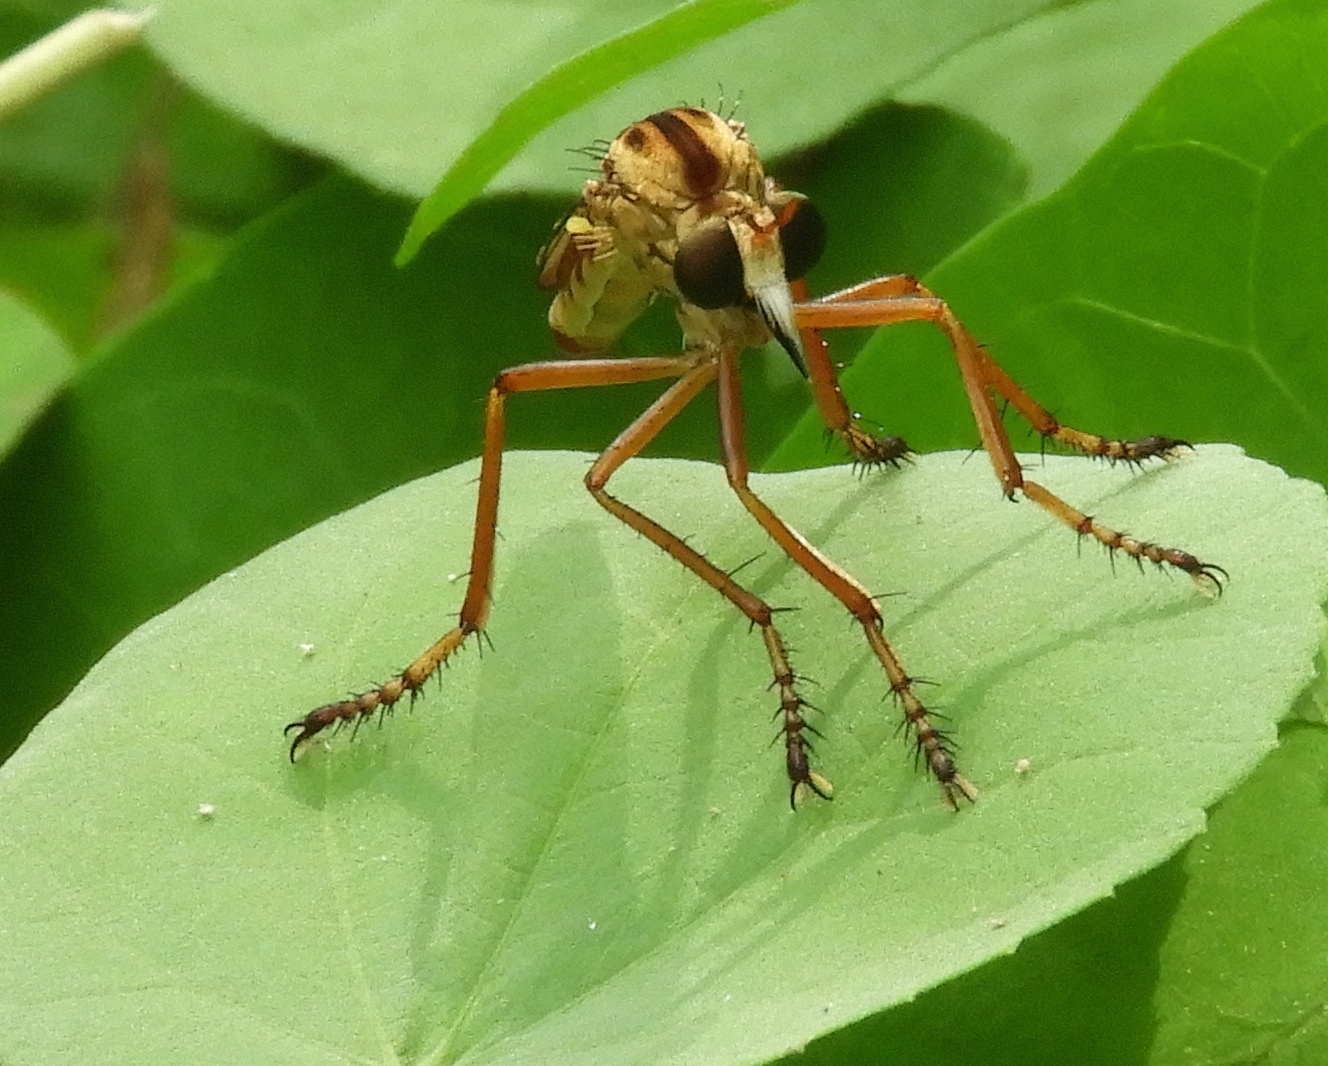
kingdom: Animalia
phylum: Arthropoda
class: Insecta
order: Diptera
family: Asilidae
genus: Diogmites
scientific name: Diogmites
